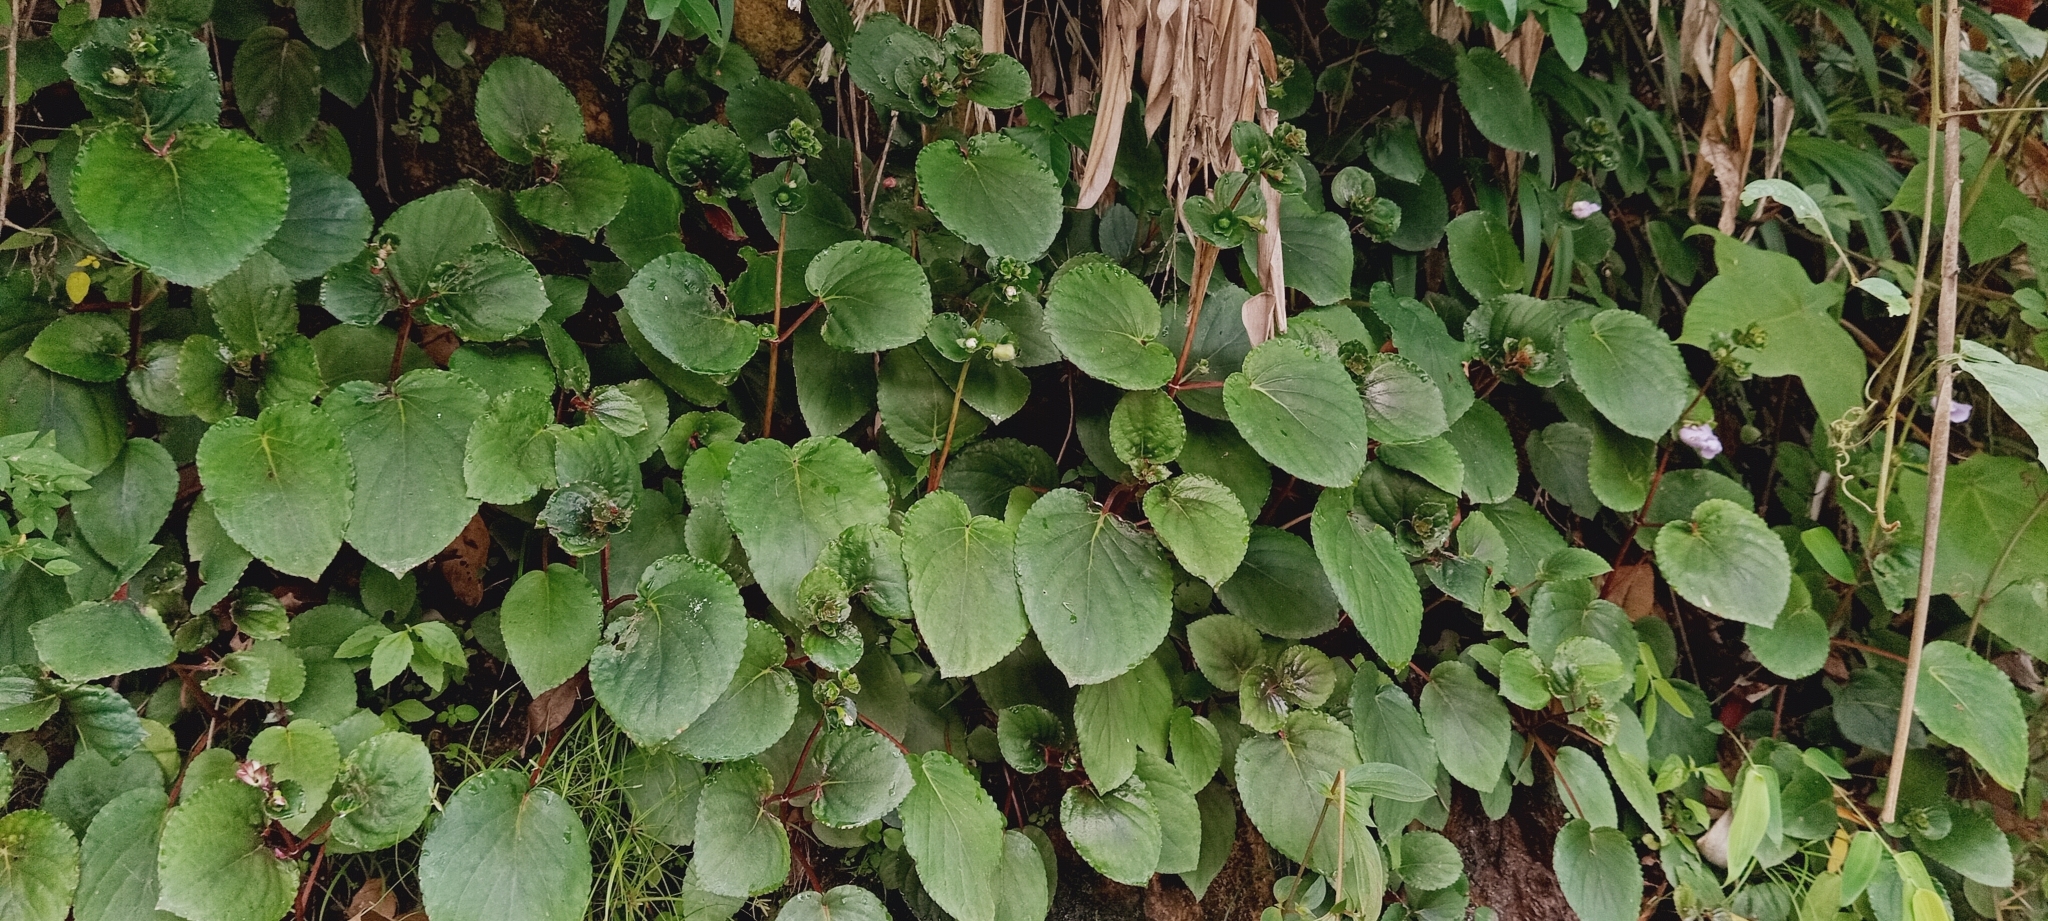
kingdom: Plantae
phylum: Tracheophyta
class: Magnoliopsida
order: Lamiales
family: Gesneriaceae
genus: Gloxinia
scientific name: Gloxinia perennis
